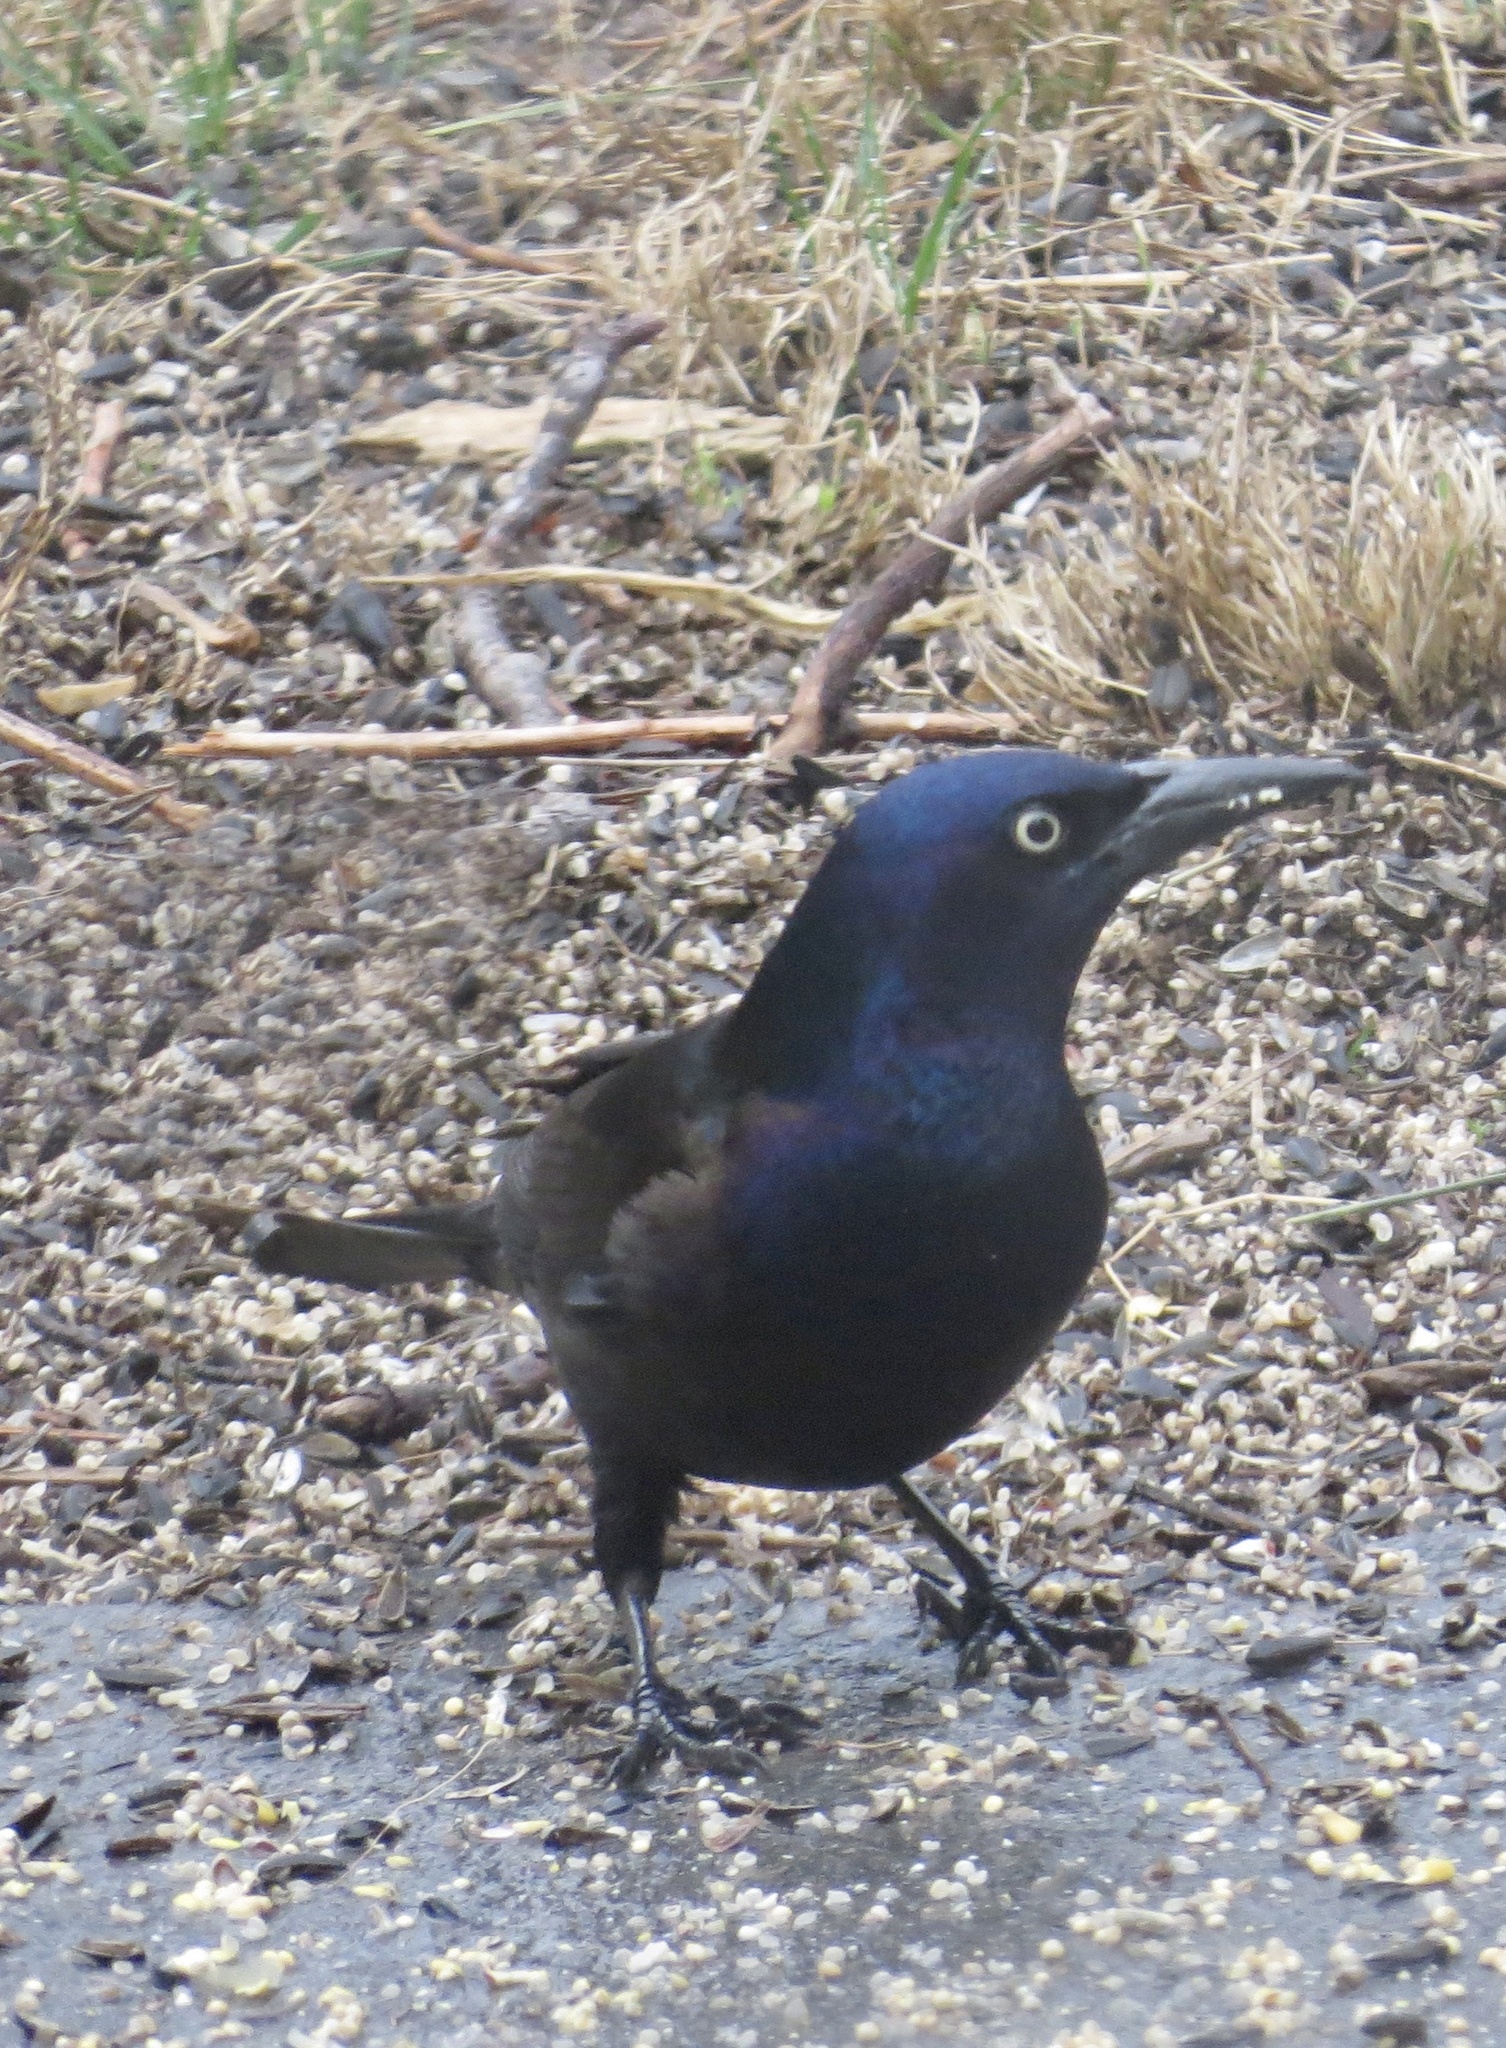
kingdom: Animalia
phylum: Chordata
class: Aves
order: Passeriformes
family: Icteridae
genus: Quiscalus
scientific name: Quiscalus quiscula
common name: Common grackle
